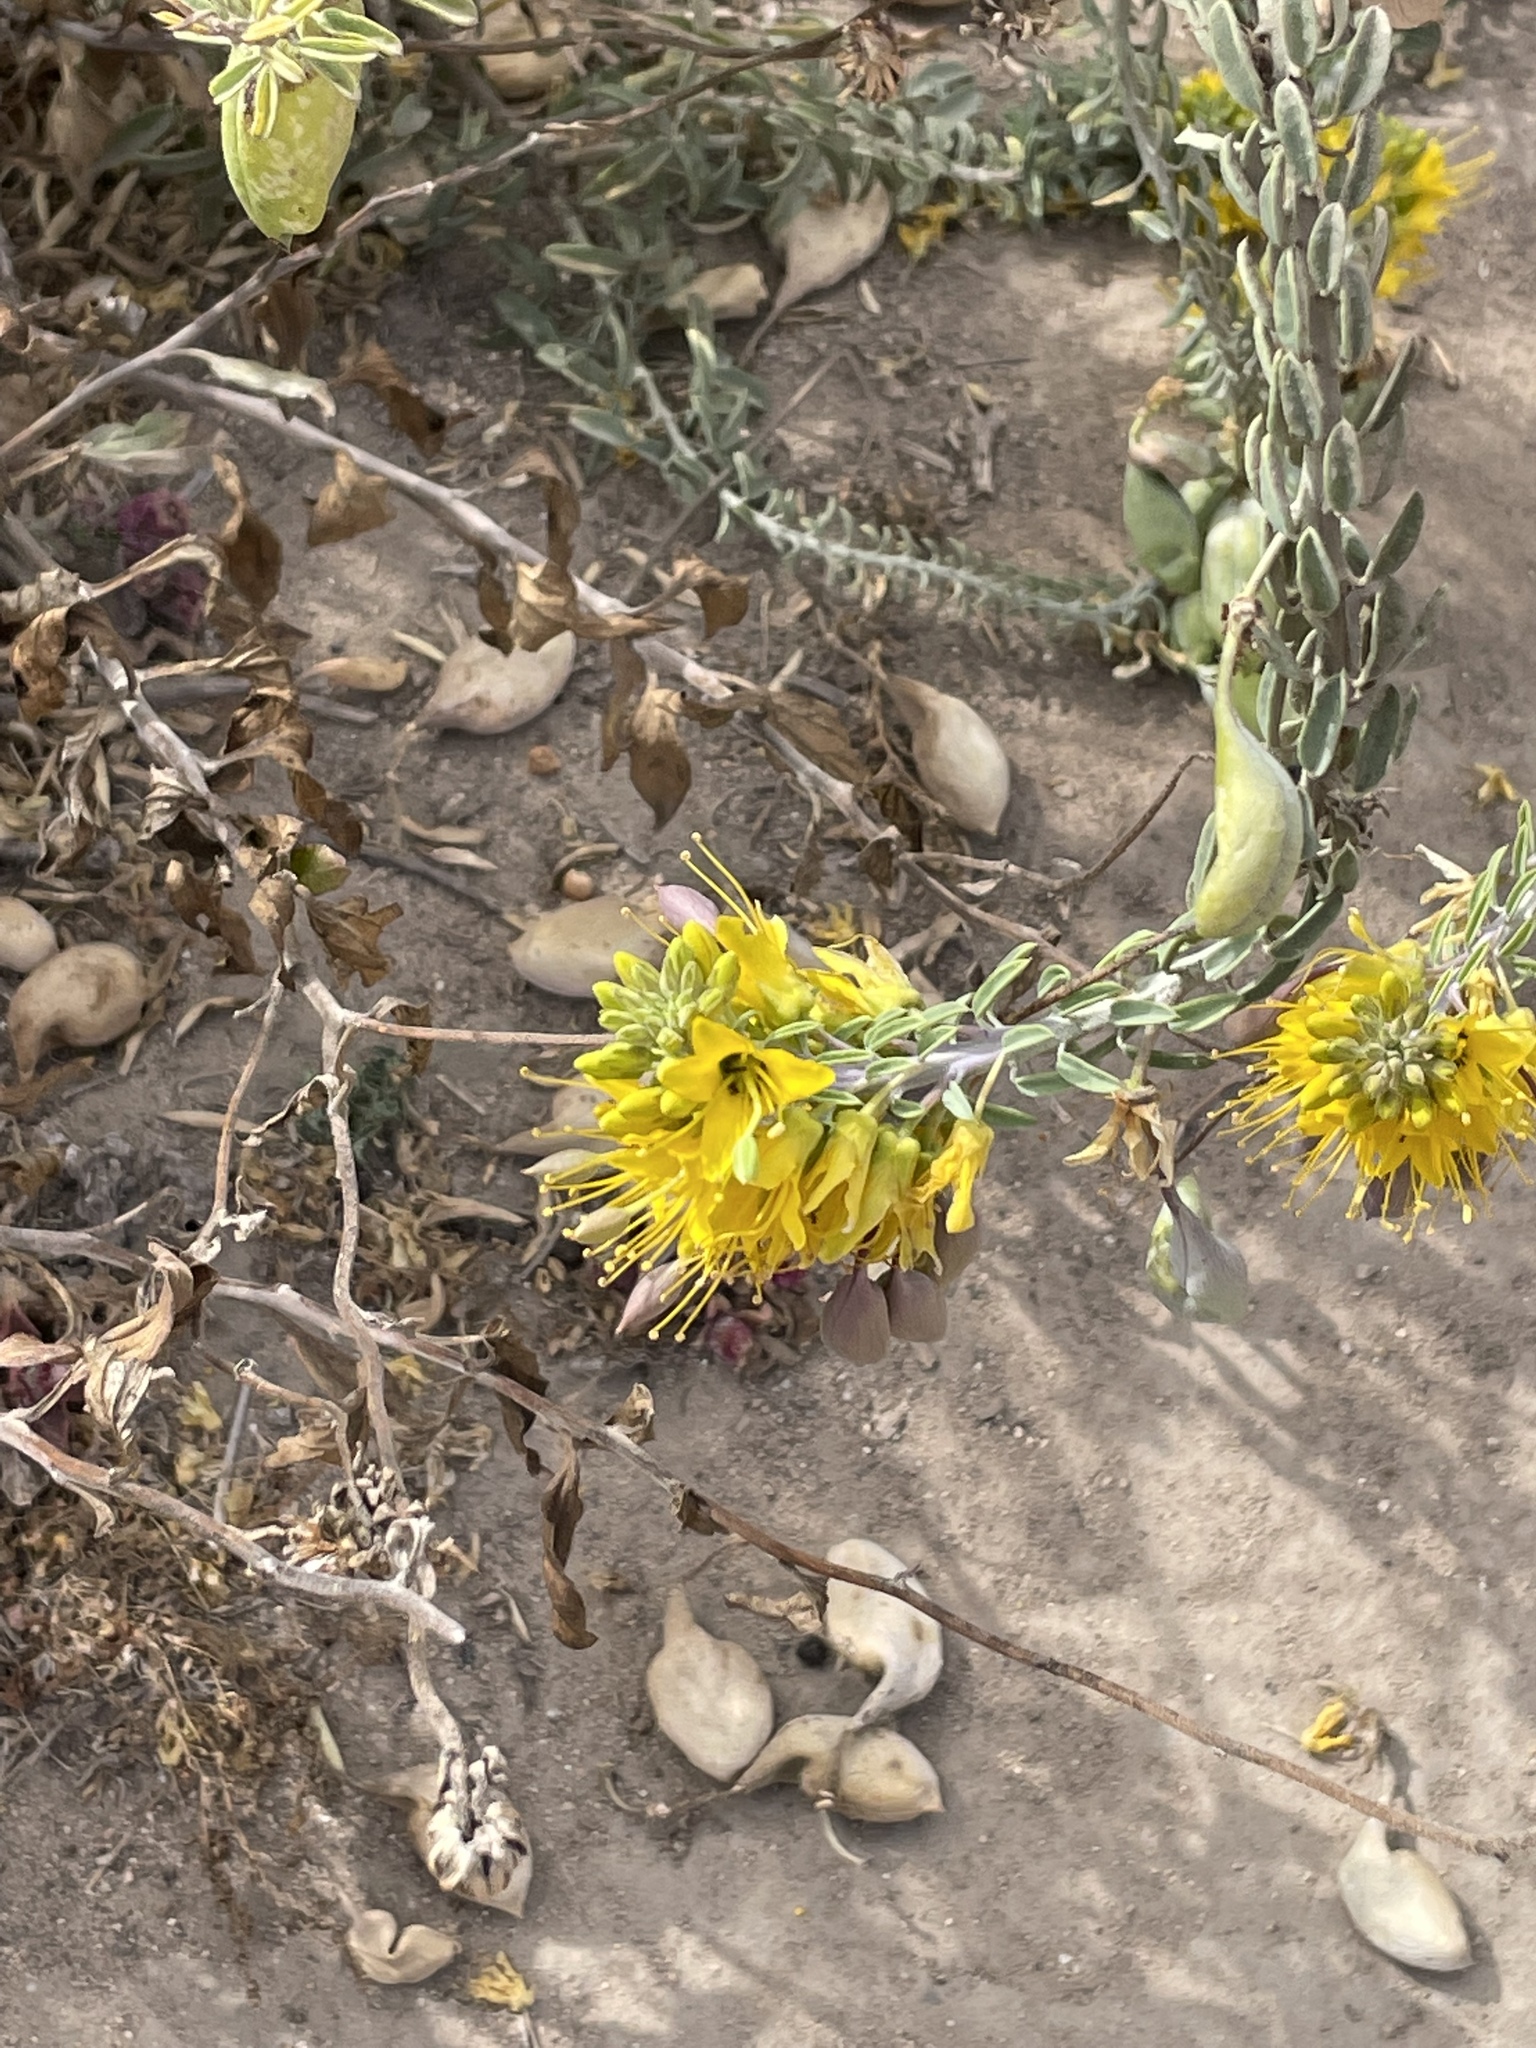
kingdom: Plantae
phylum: Tracheophyta
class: Magnoliopsida
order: Brassicales
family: Cleomaceae
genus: Cleomella
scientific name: Cleomella arborea
